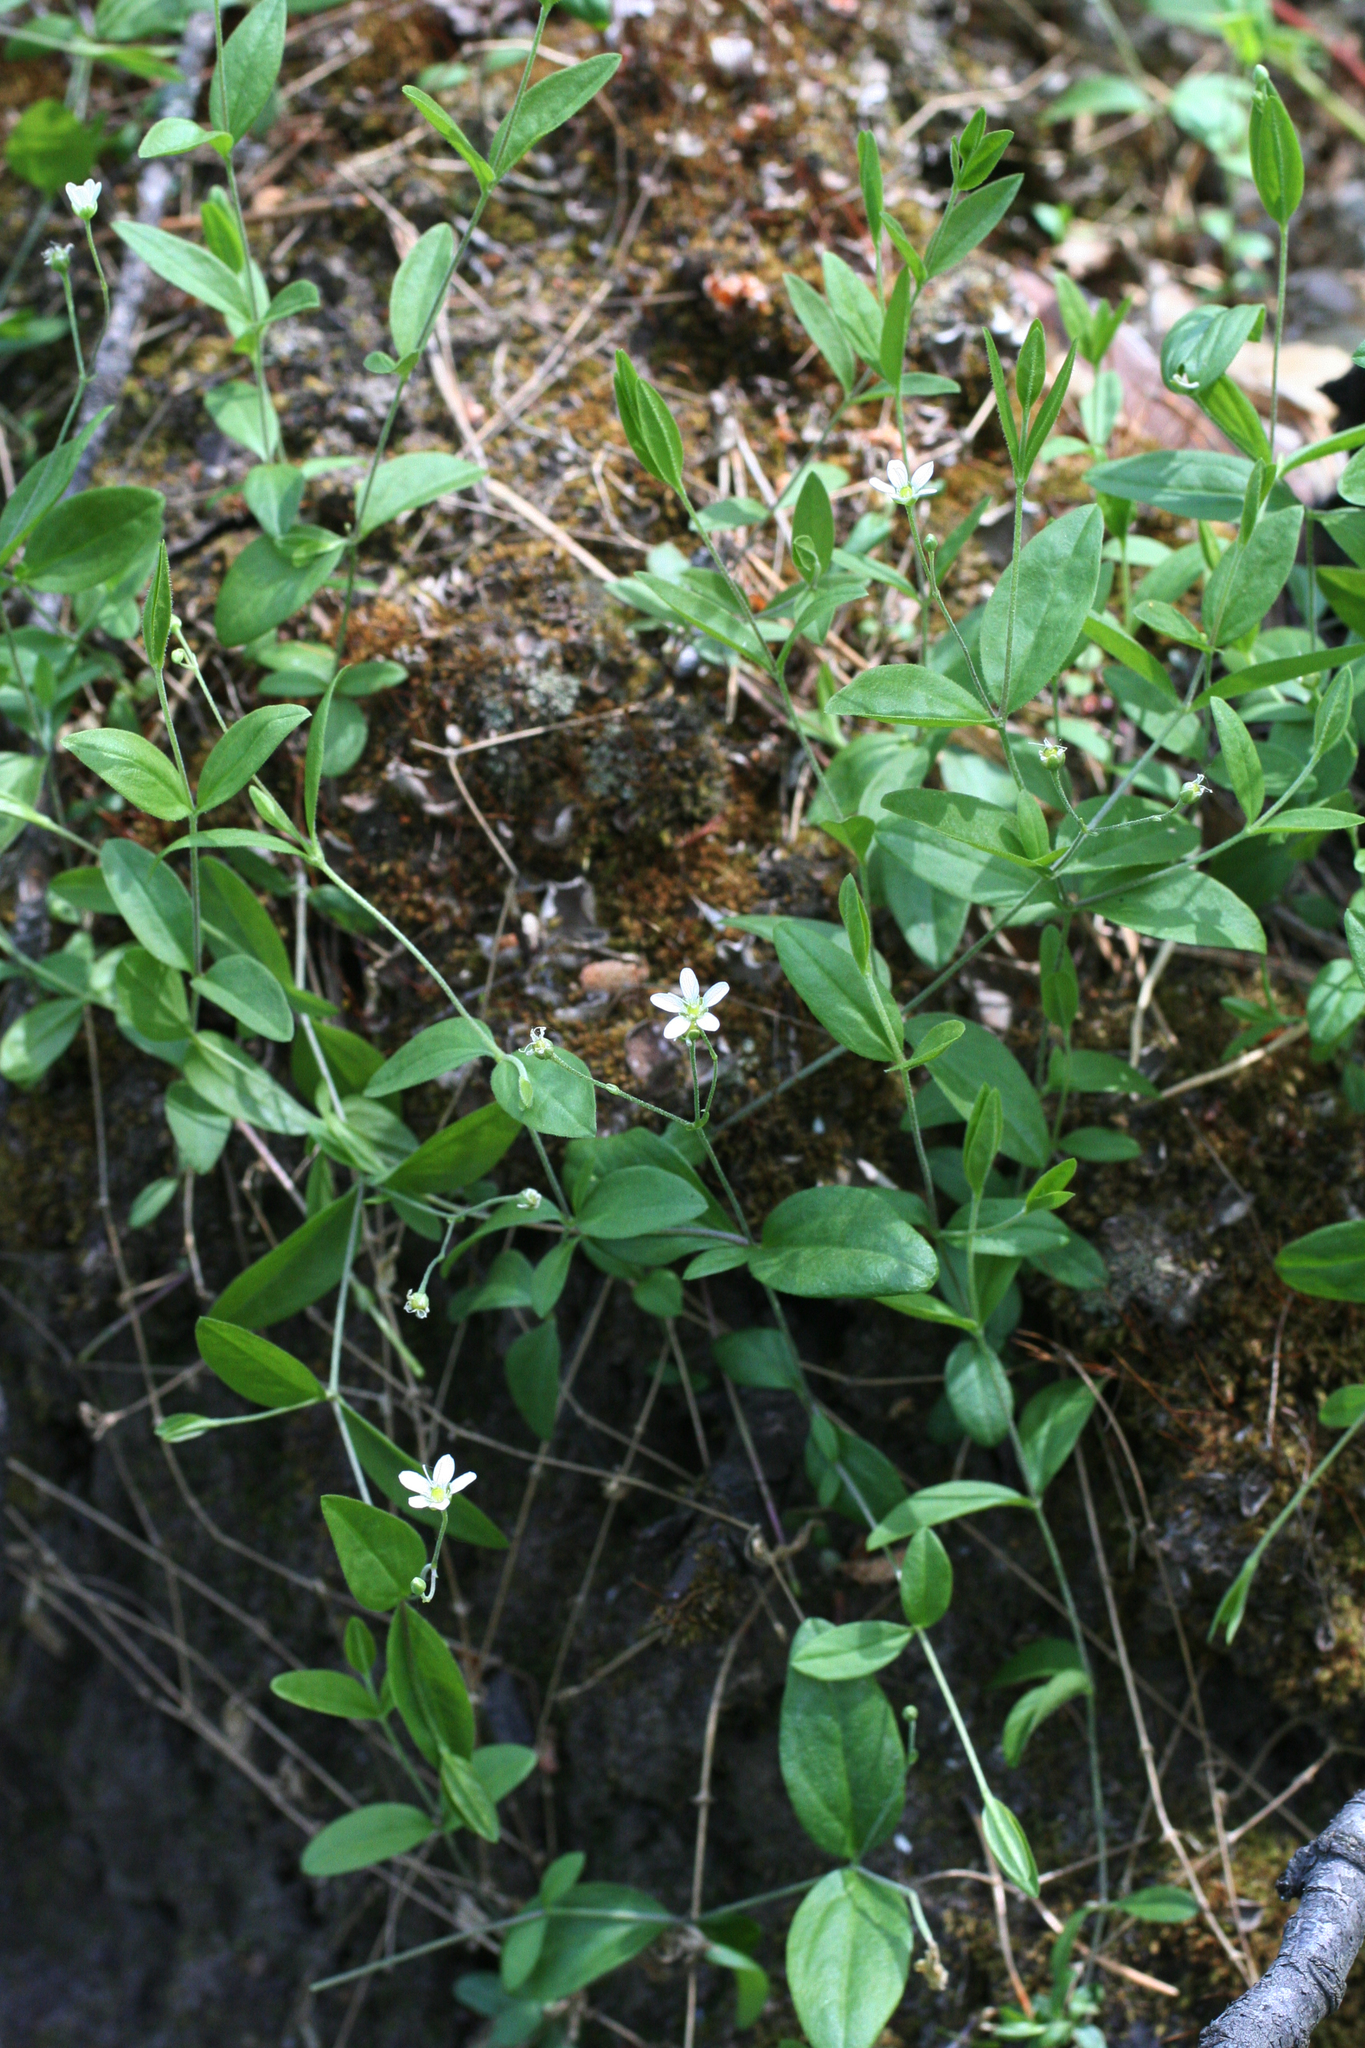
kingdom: Plantae
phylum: Tracheophyta
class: Magnoliopsida
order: Caryophyllales
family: Caryophyllaceae
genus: Moehringia
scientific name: Moehringia lateriflora
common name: Blunt-leaved sandwort
